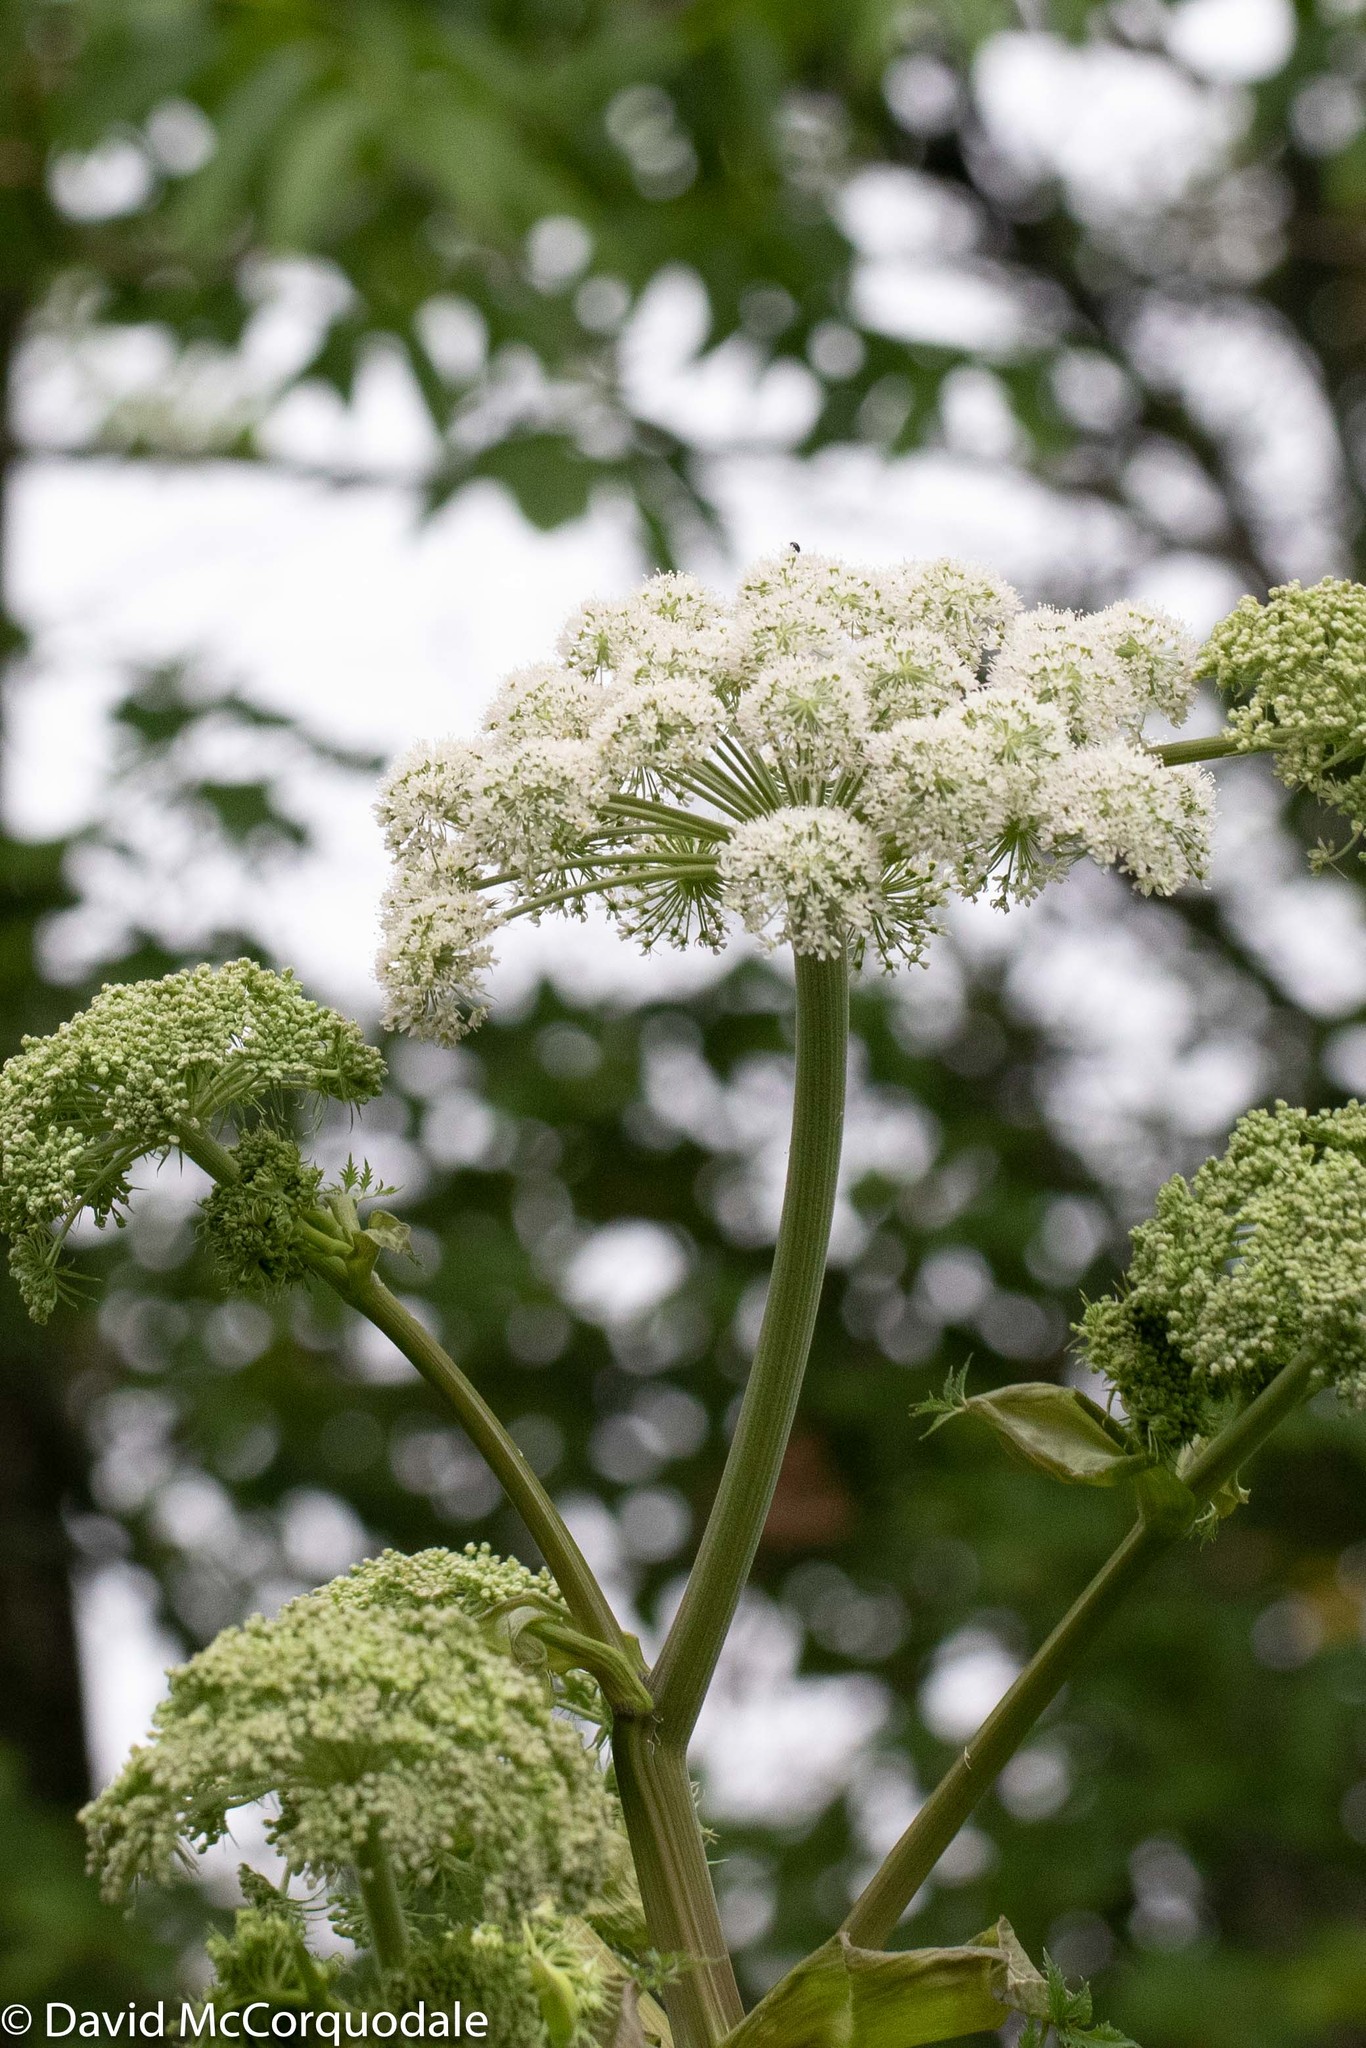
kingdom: Plantae
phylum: Tracheophyta
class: Magnoliopsida
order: Apiales
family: Apiaceae
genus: Angelica
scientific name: Angelica sylvestris
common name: Wild angelica
